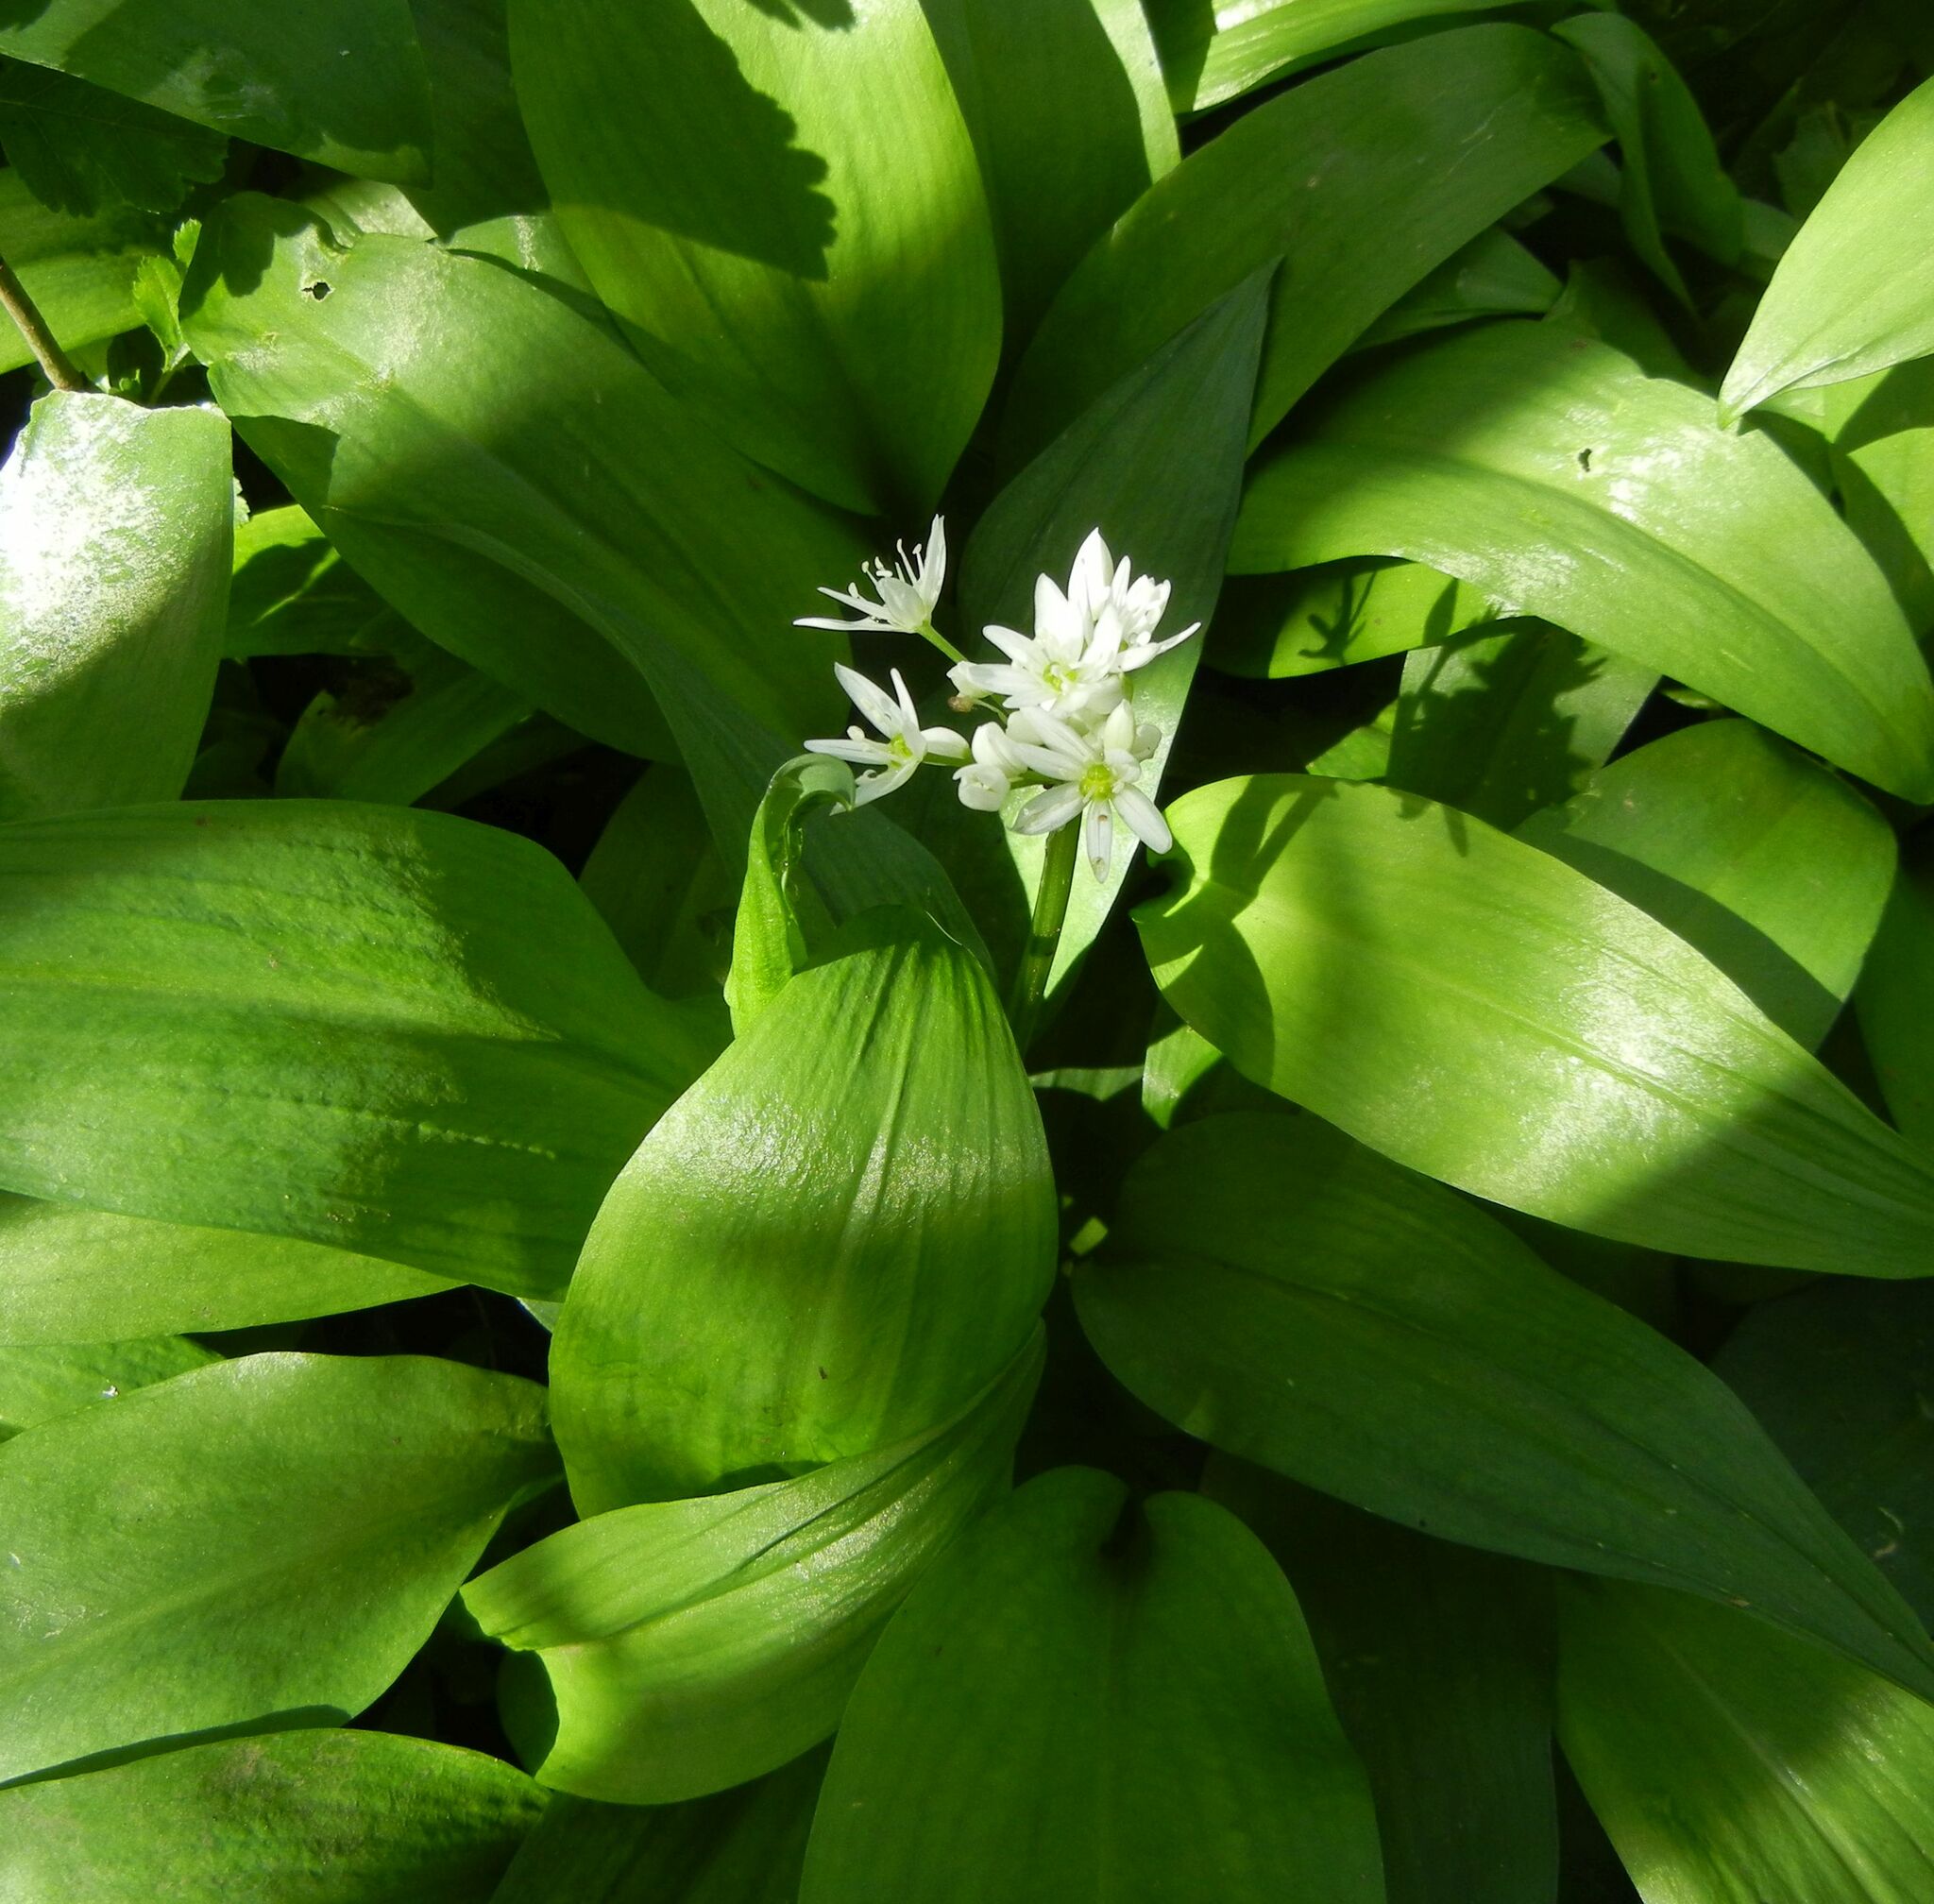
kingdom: Plantae
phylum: Tracheophyta
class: Liliopsida
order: Asparagales
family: Amaryllidaceae
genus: Allium
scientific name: Allium ursinum
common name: Ramsons
